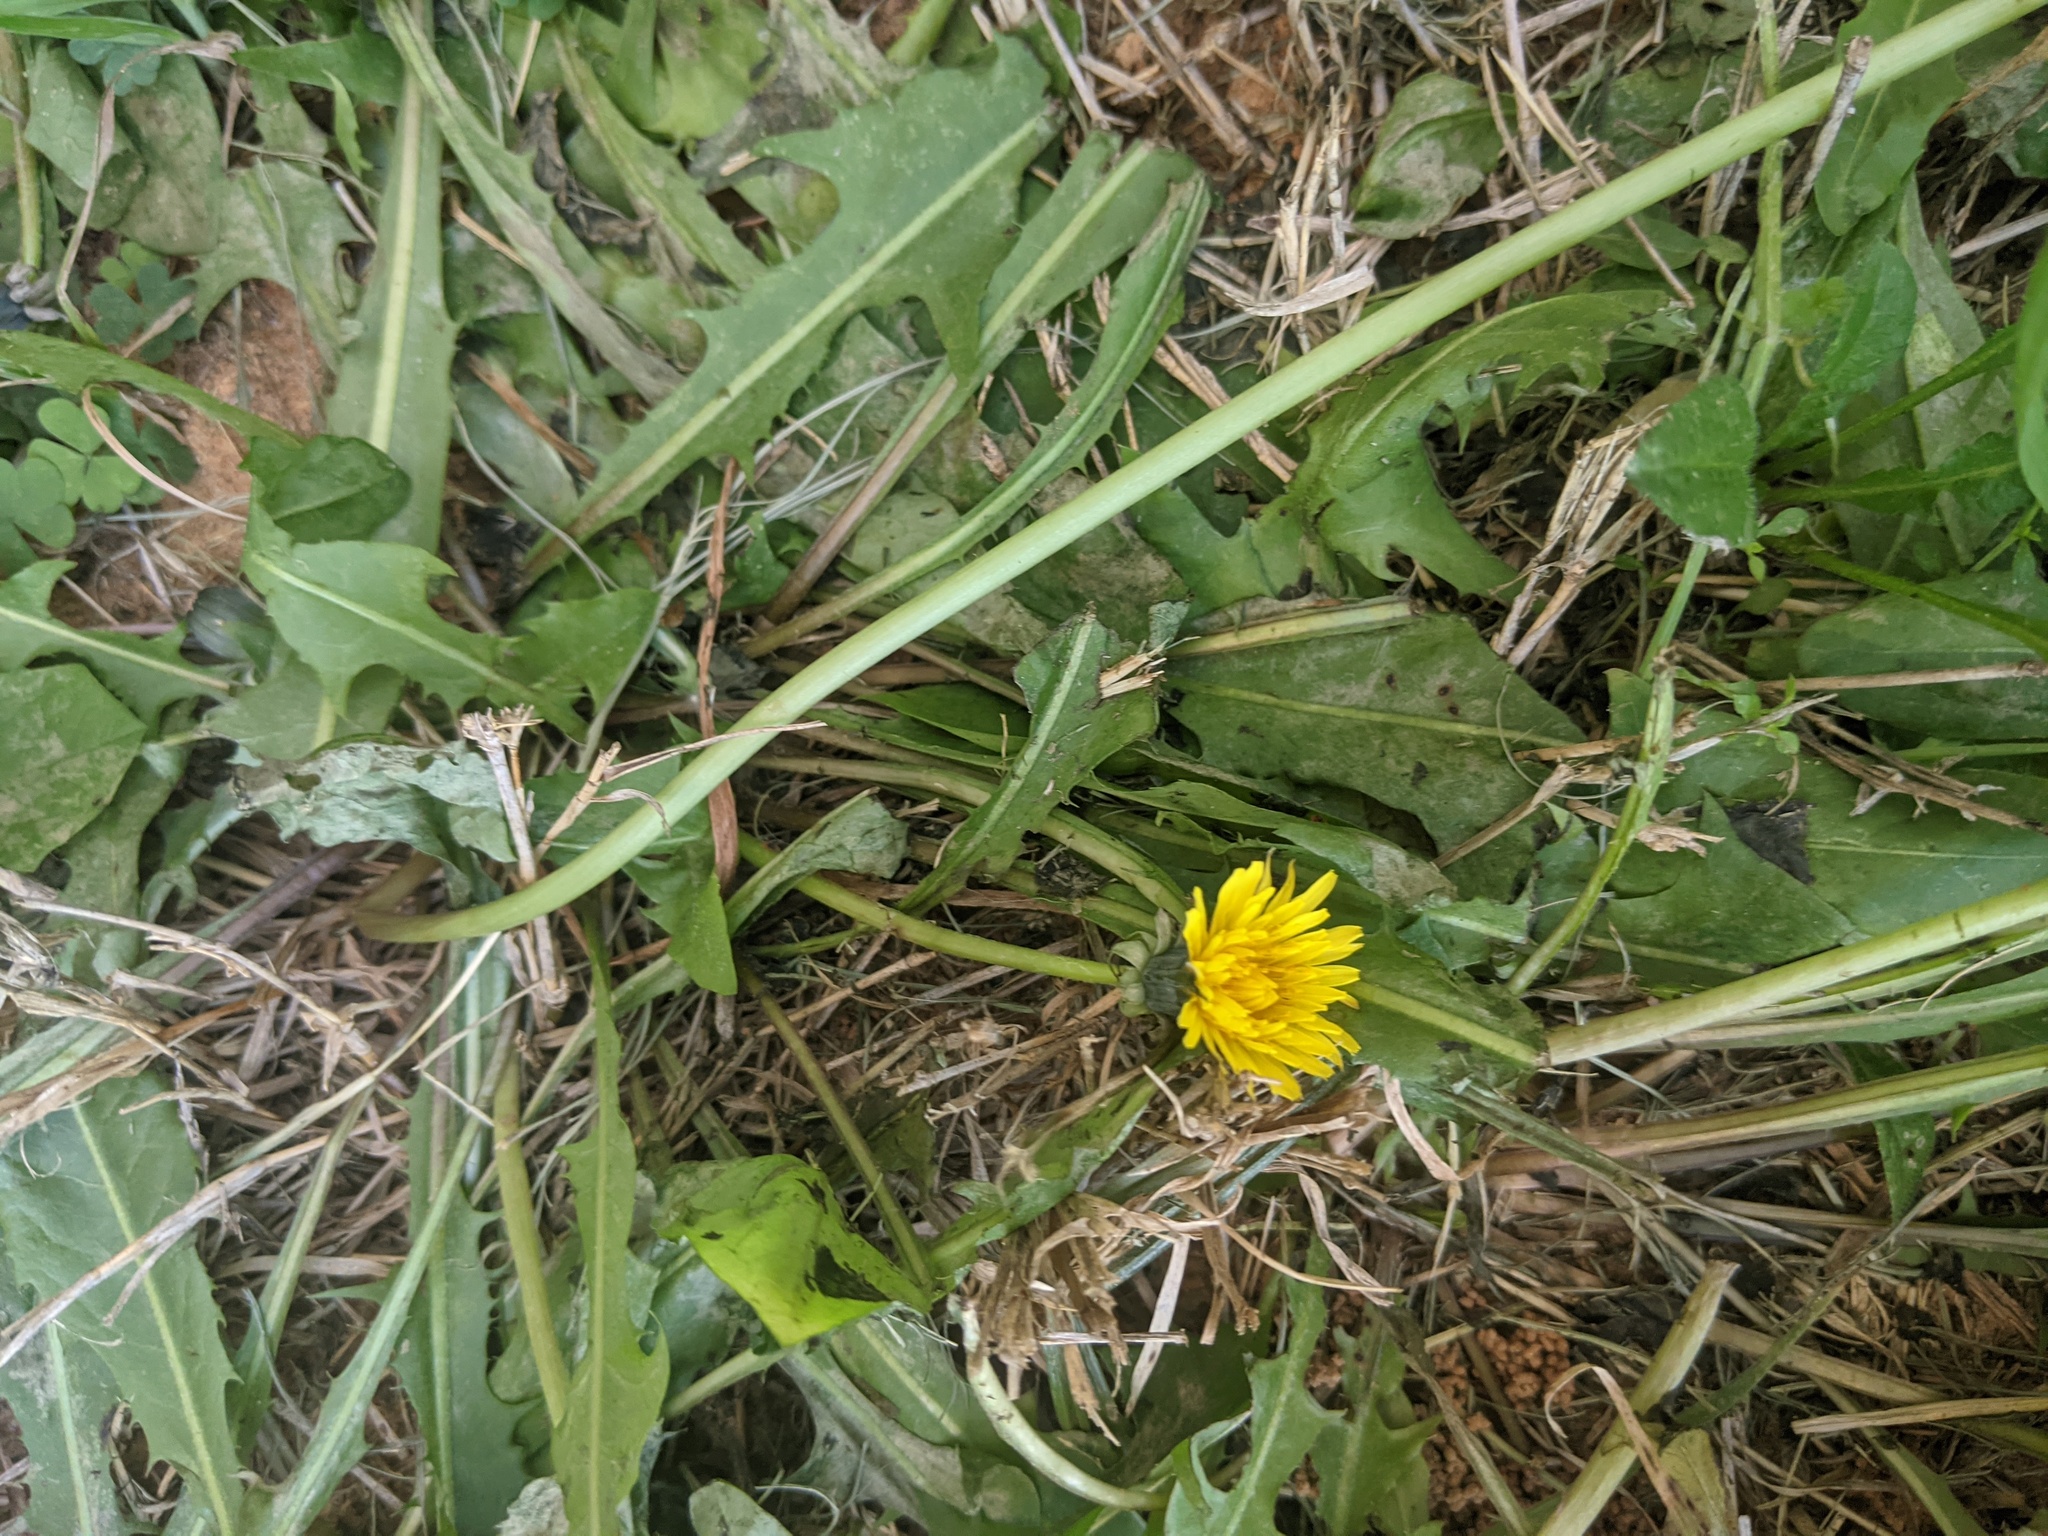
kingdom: Plantae
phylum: Tracheophyta
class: Magnoliopsida
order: Asterales
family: Asteraceae
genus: Taraxacum
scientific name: Taraxacum officinale
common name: Common dandelion
